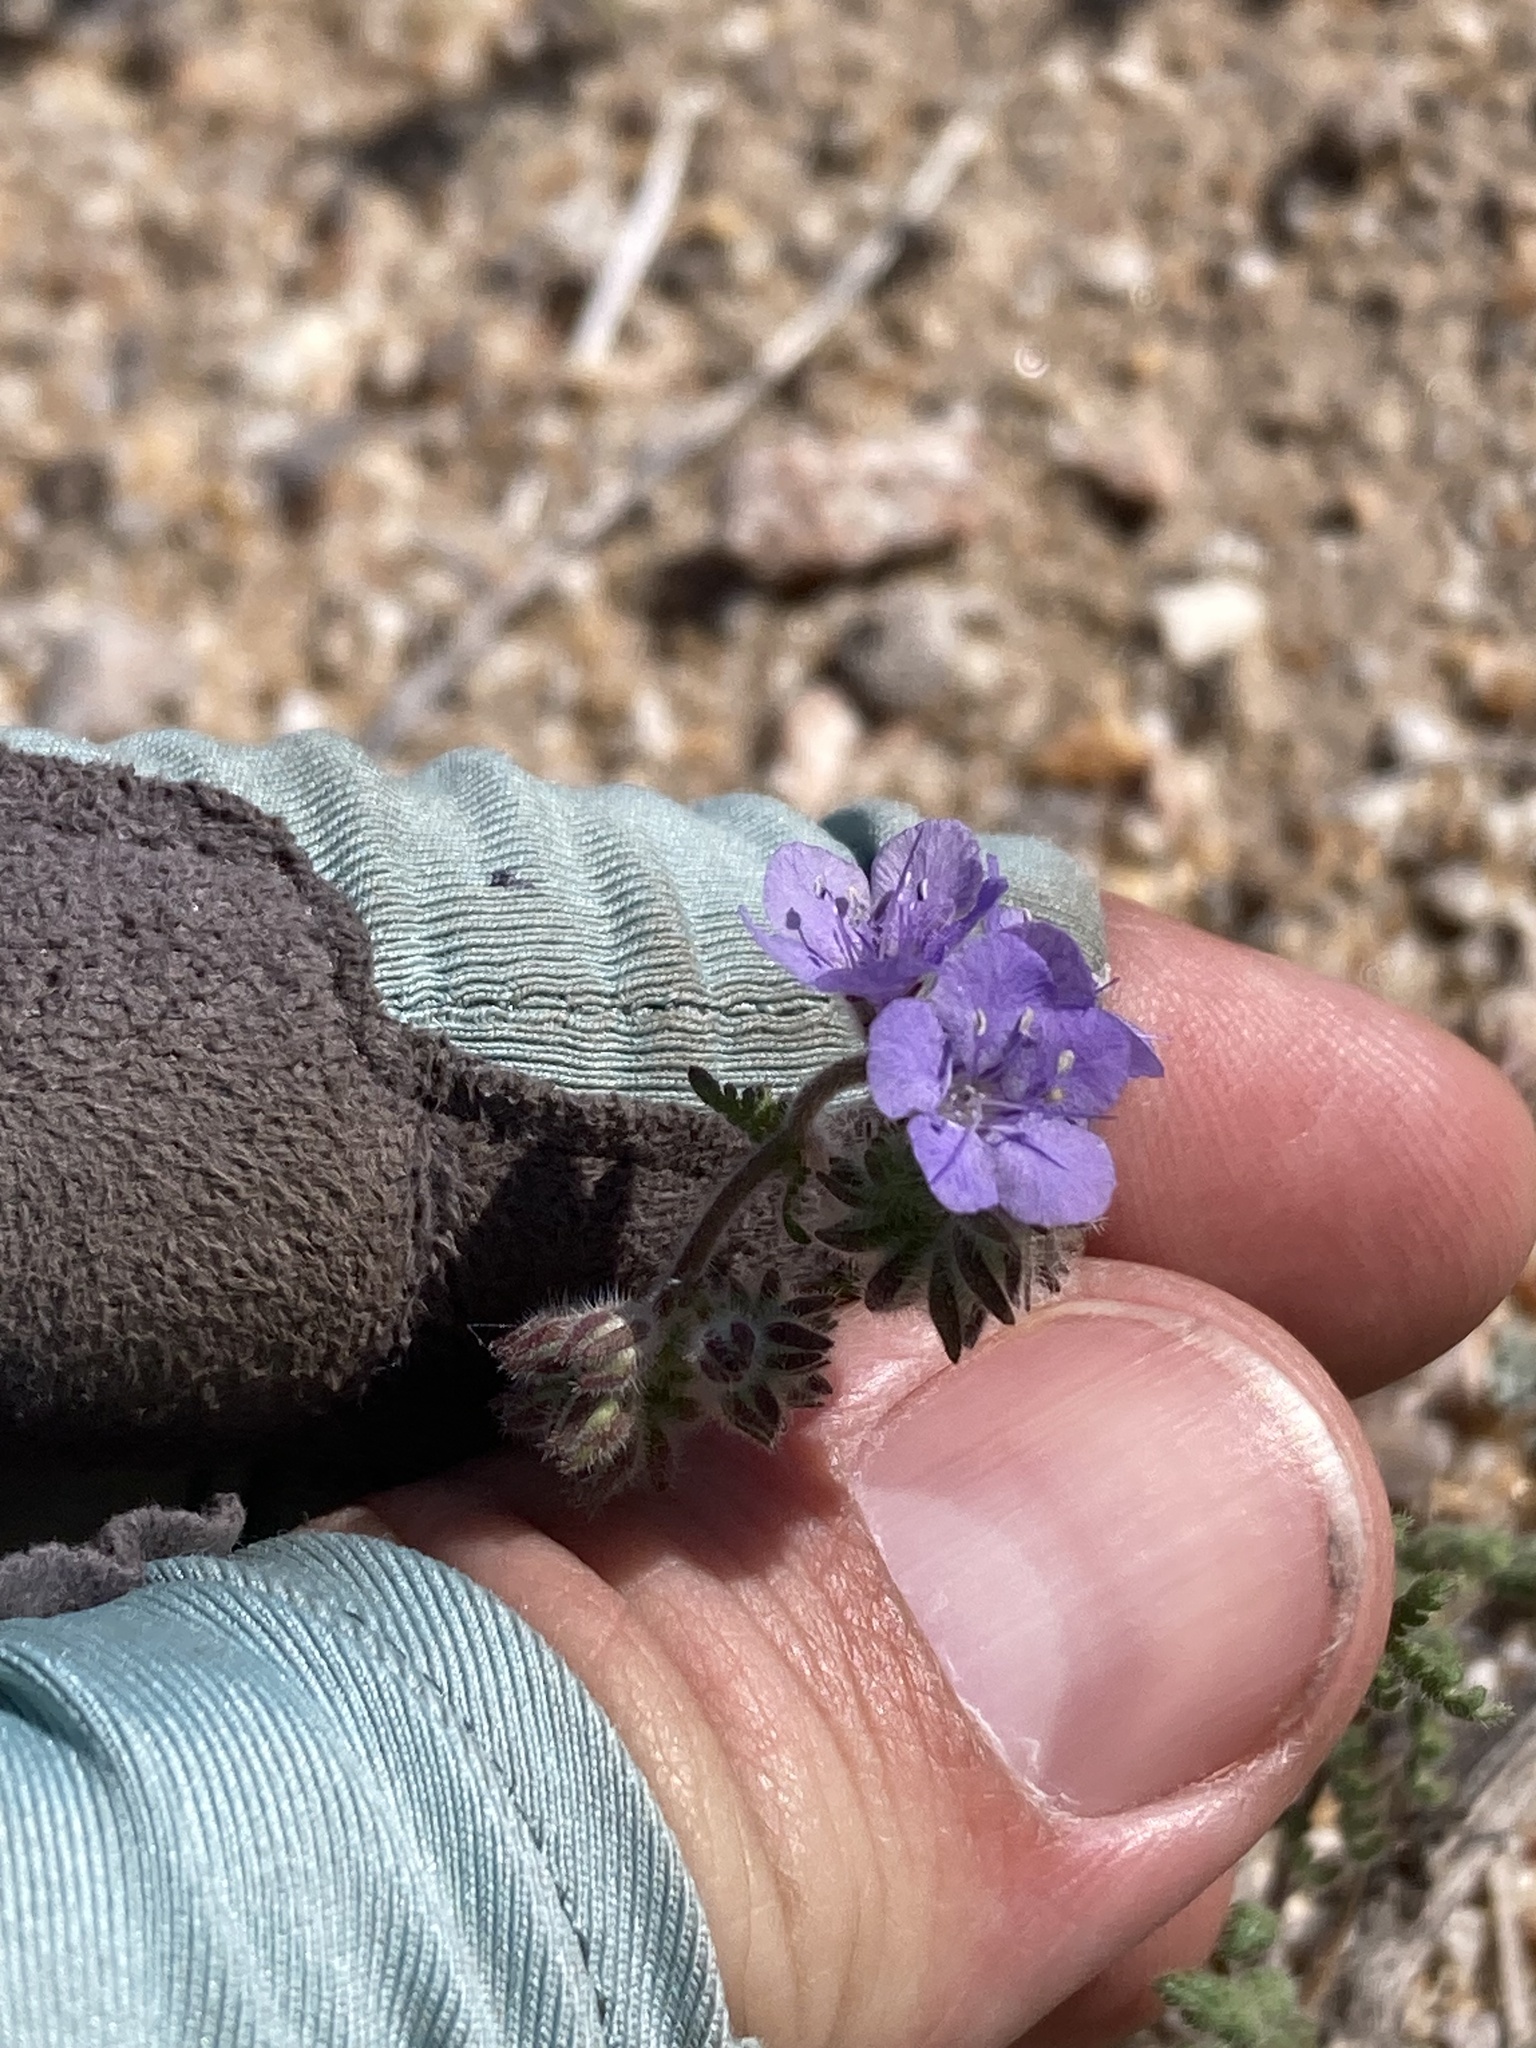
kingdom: Plantae
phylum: Tracheophyta
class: Magnoliopsida
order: Boraginales
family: Hydrophyllaceae
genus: Phacelia
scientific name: Phacelia distans
